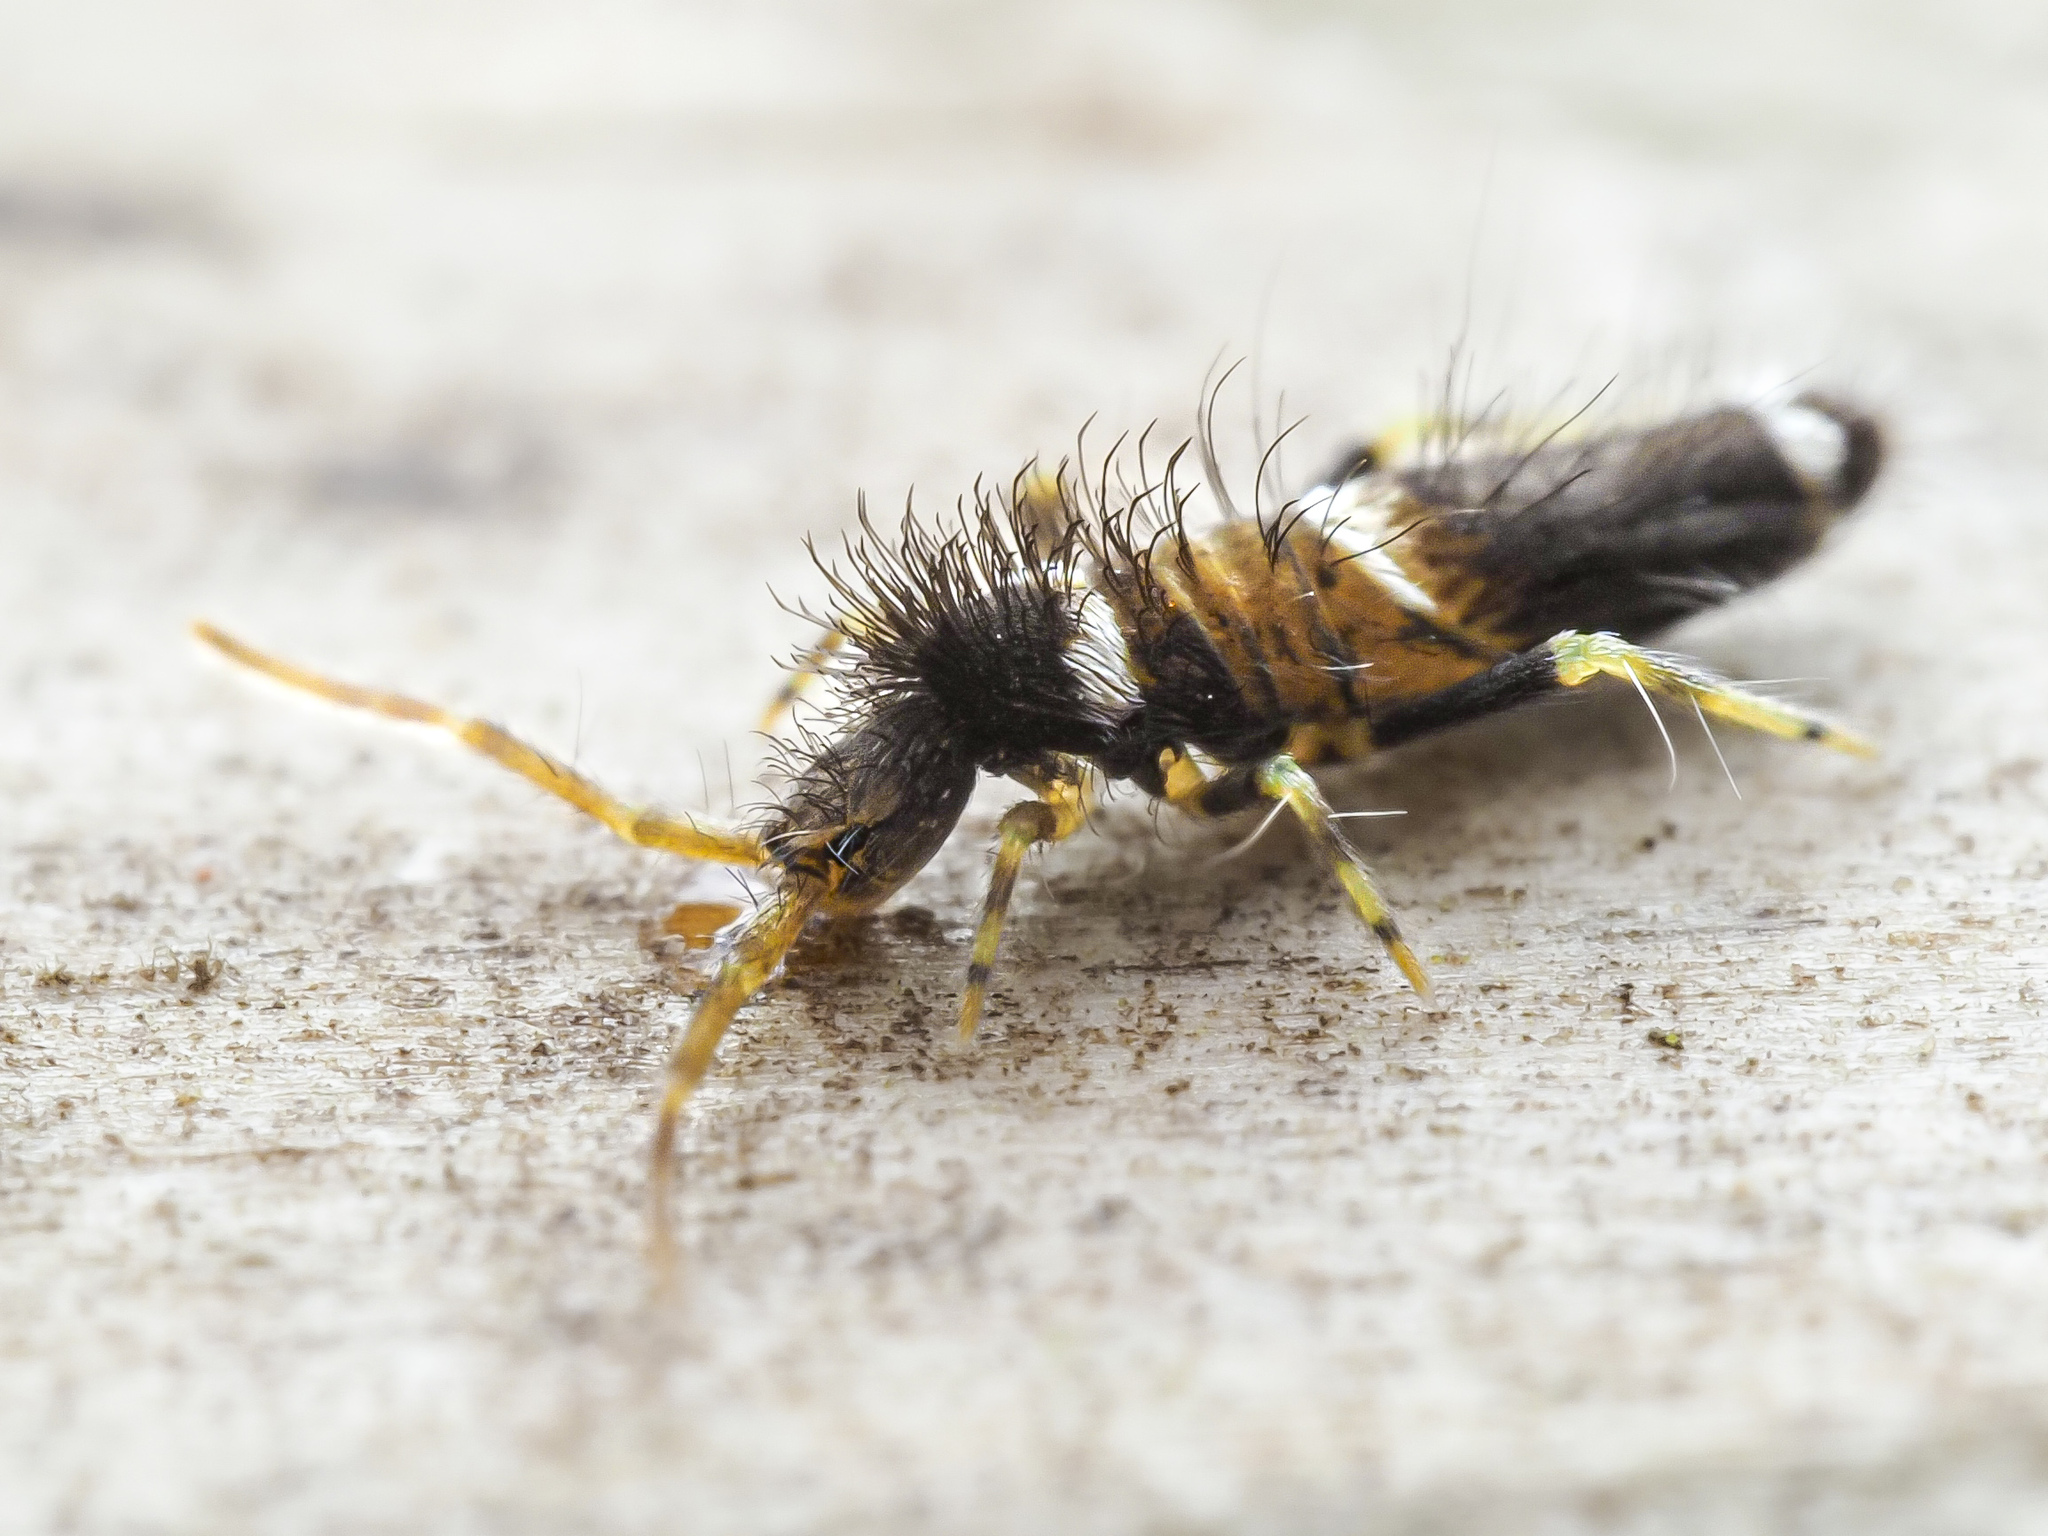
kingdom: Animalia
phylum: Arthropoda
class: Collembola
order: Entomobryomorpha
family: Entomobryidae
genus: Entomobrya
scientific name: Entomobrya dorsalis
